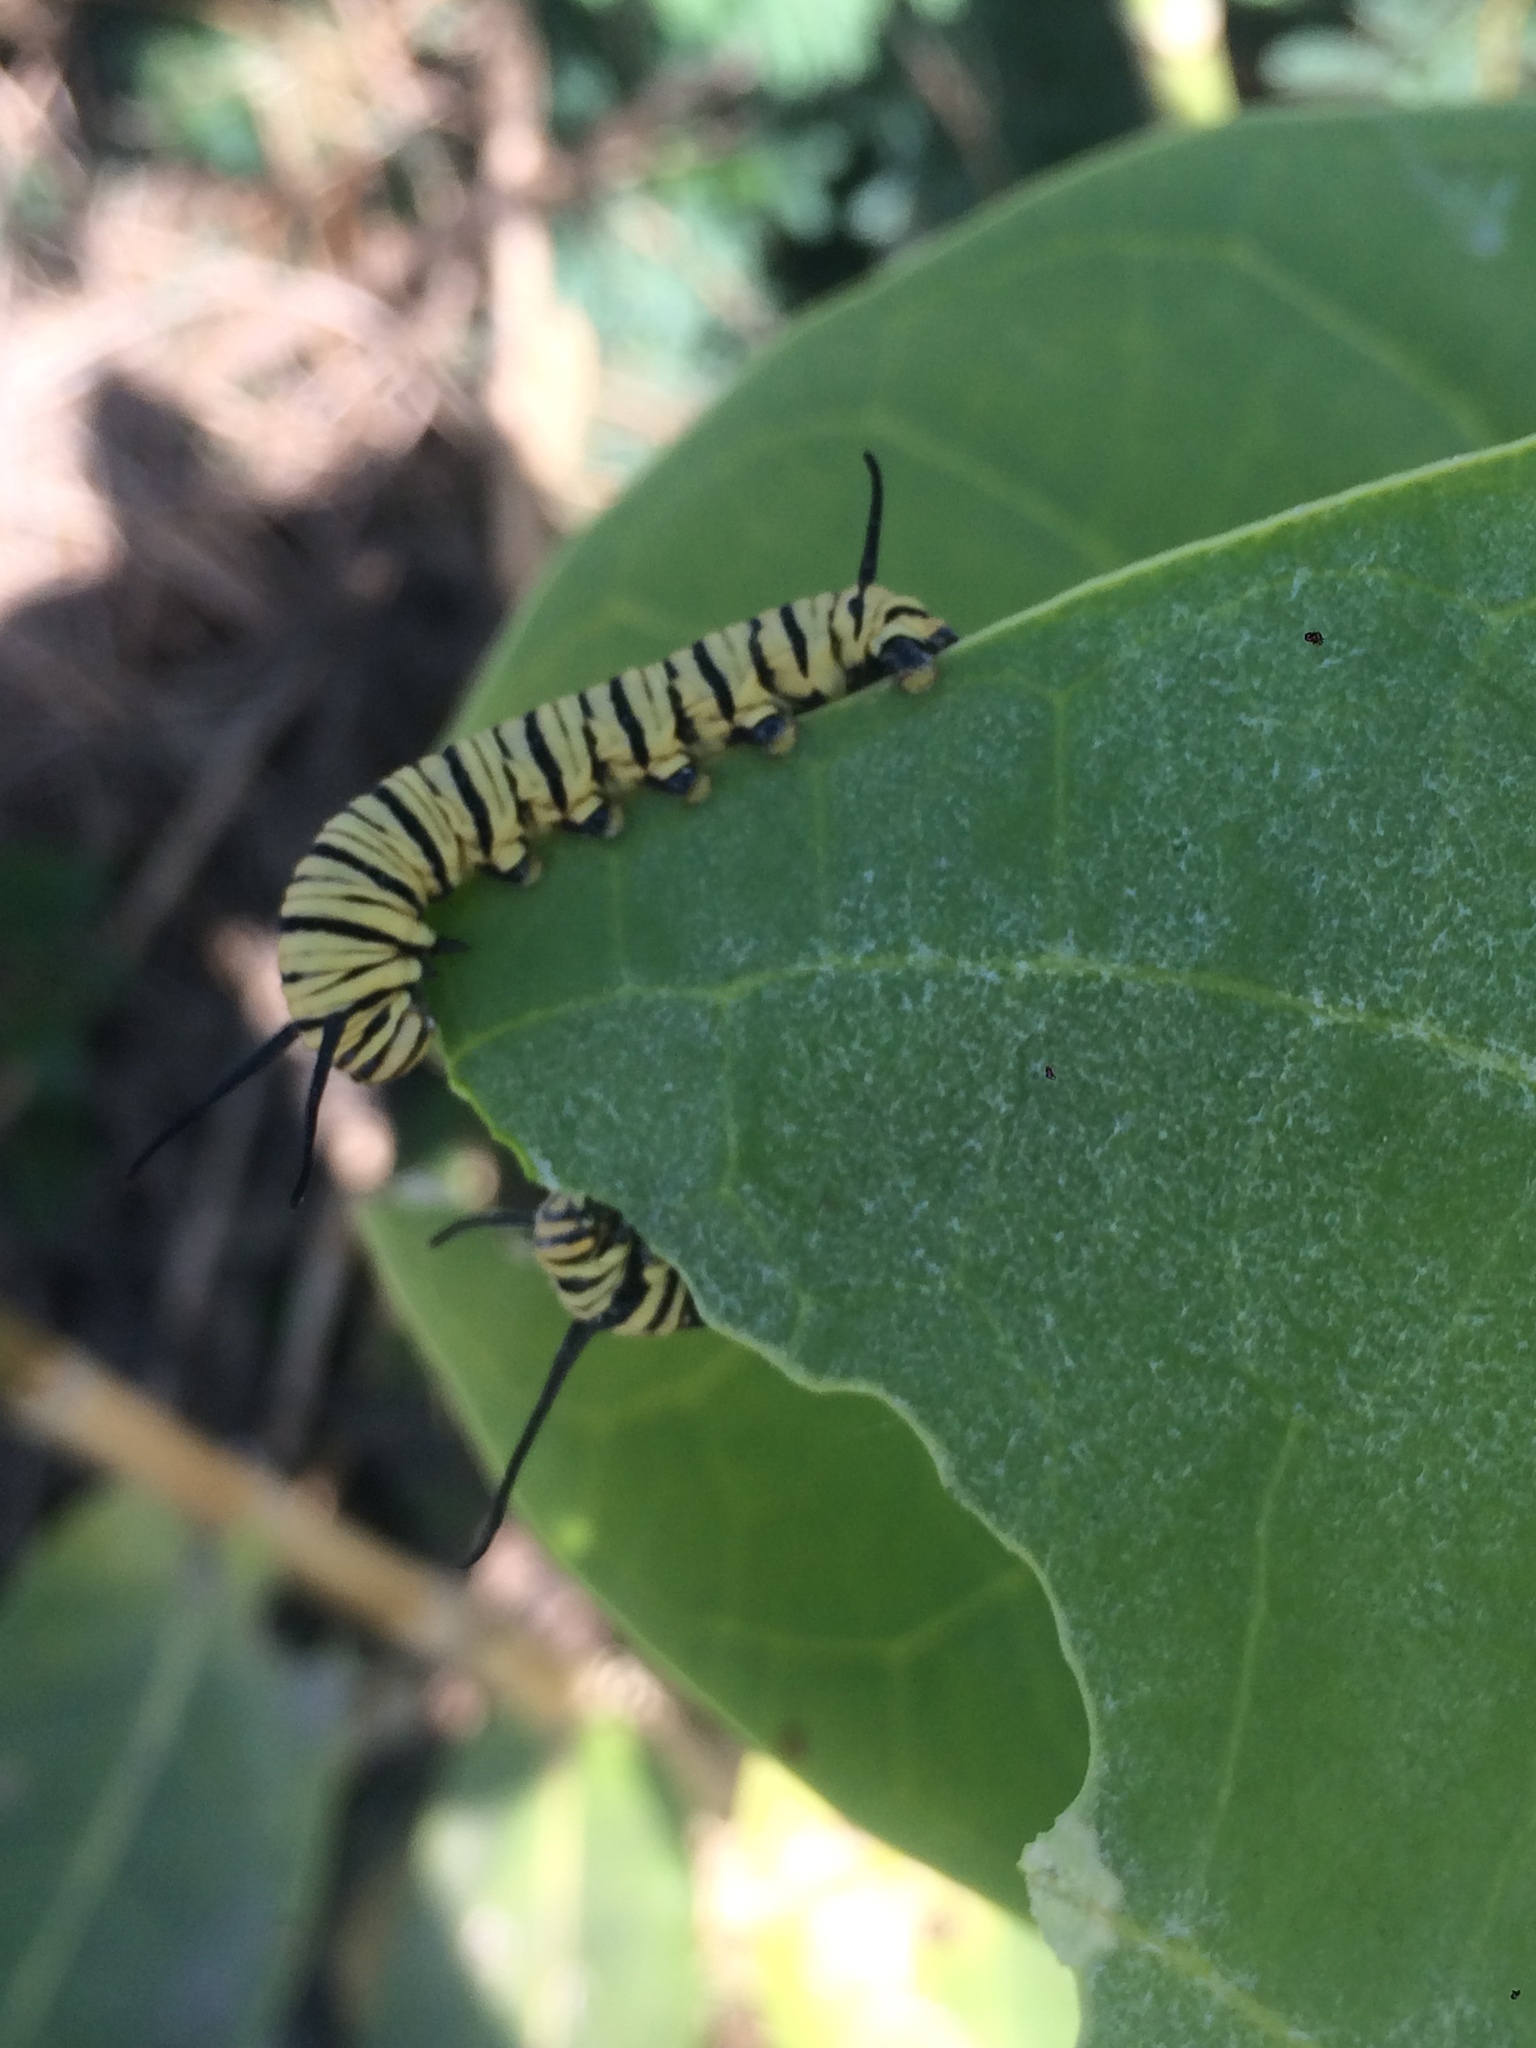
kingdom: Animalia
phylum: Arthropoda
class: Insecta
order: Lepidoptera
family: Nymphalidae
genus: Danaus
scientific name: Danaus erippus
